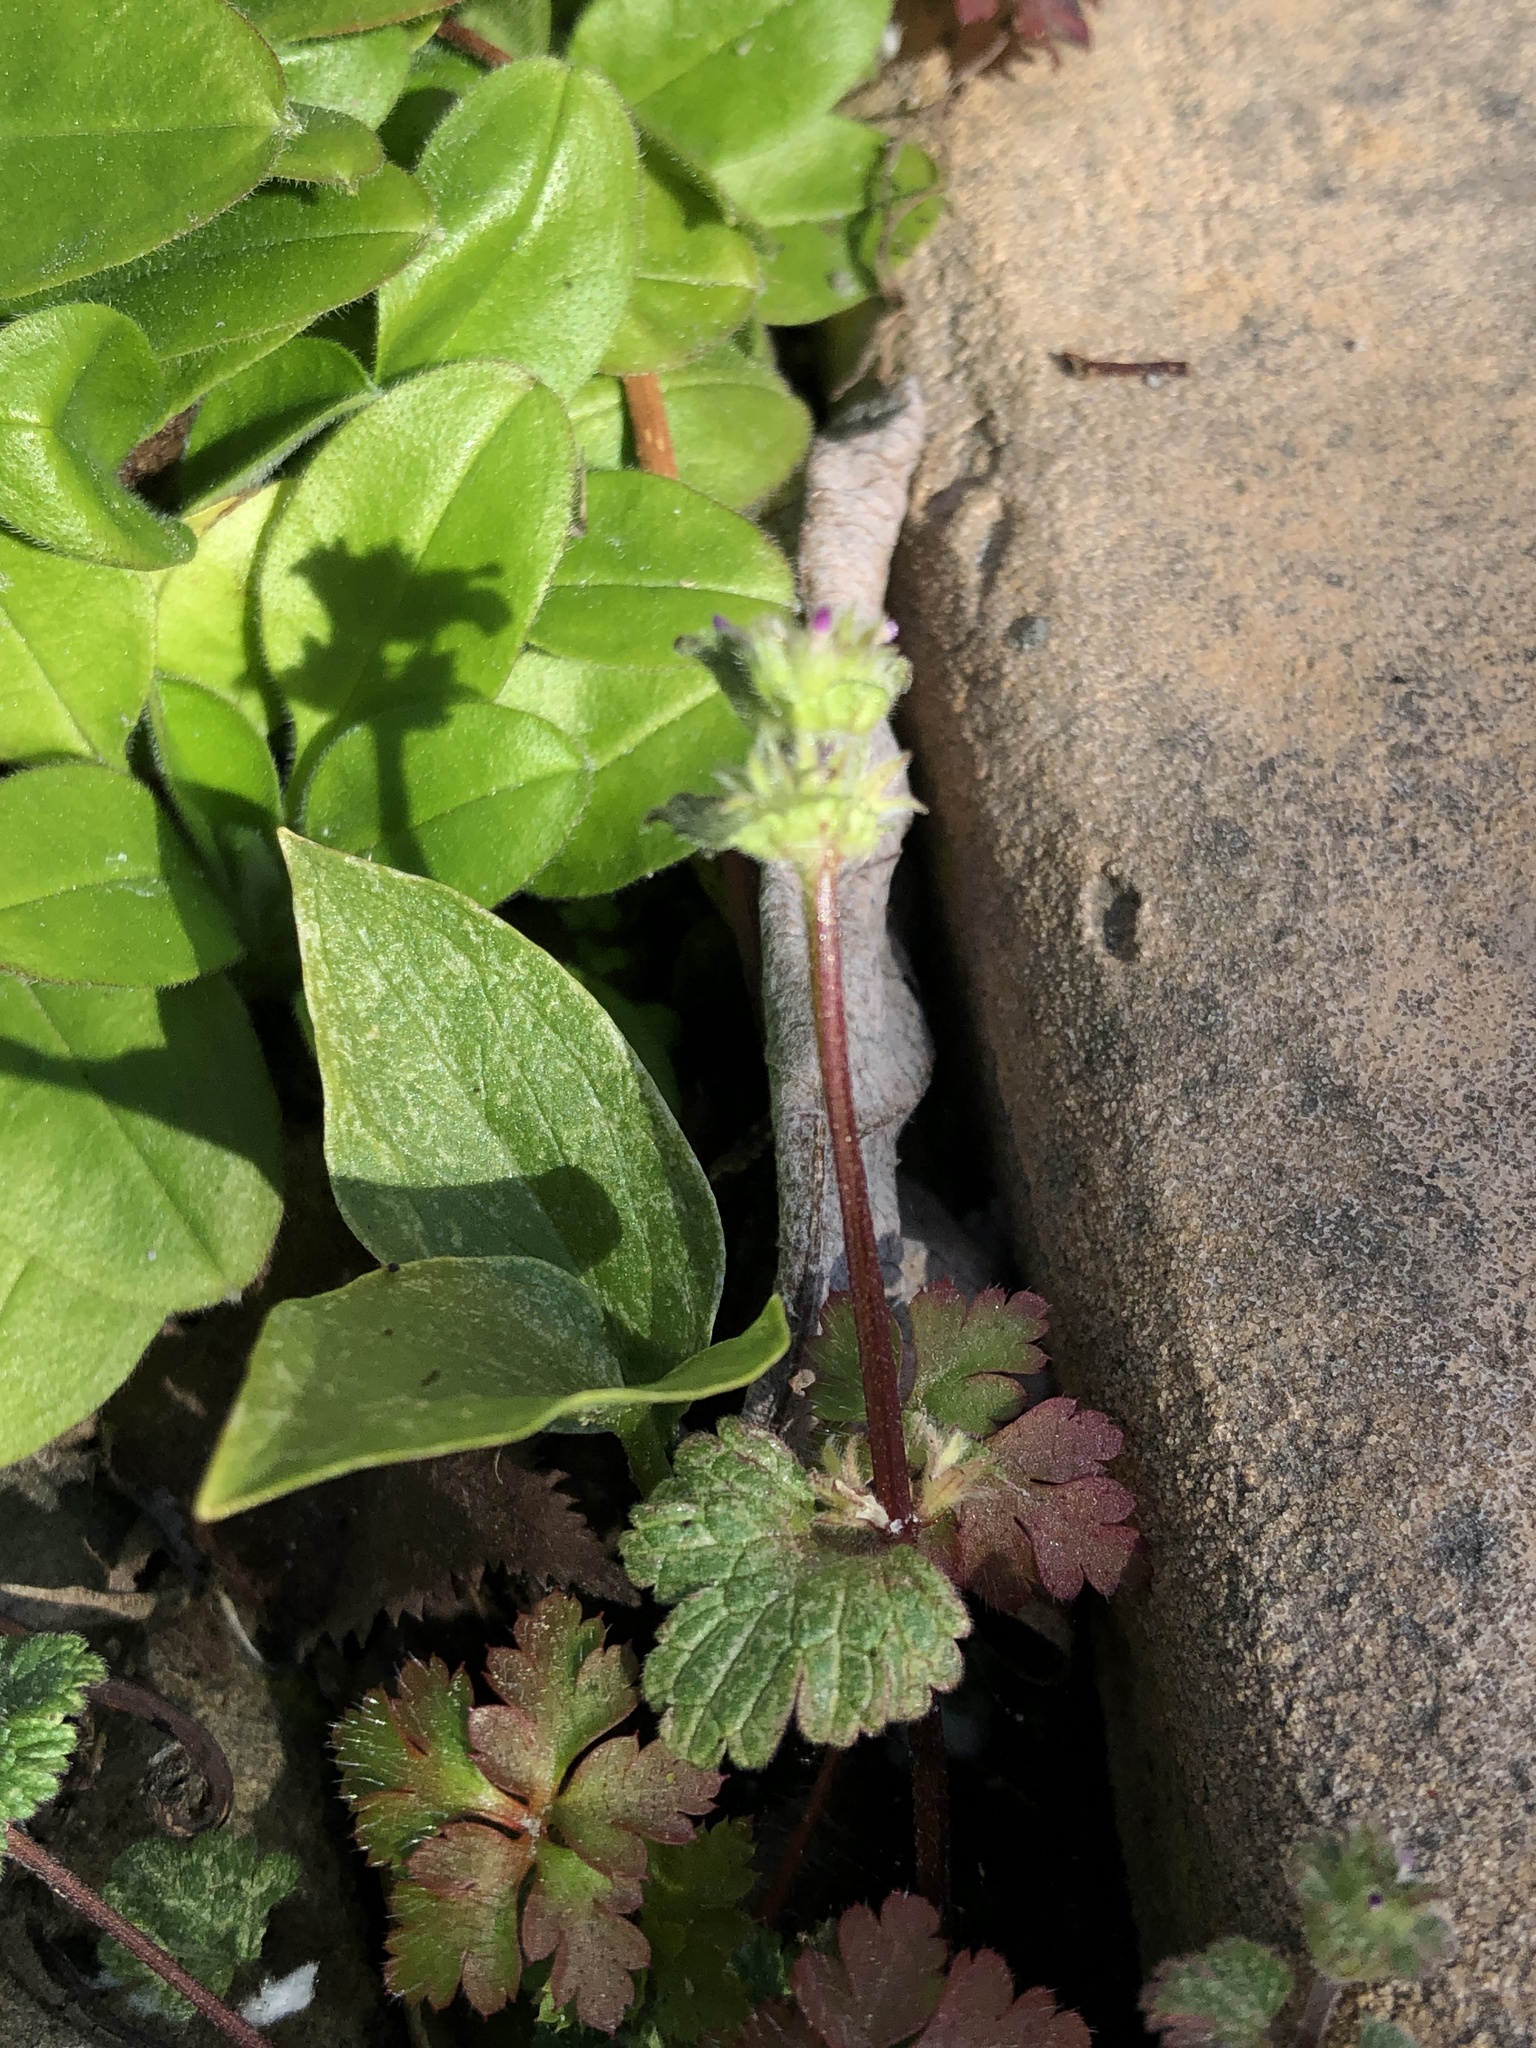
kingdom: Plantae
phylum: Tracheophyta
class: Magnoliopsida
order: Lamiales
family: Lamiaceae
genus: Lamium
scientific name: Lamium amplexicaule
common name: Henbit dead-nettle
